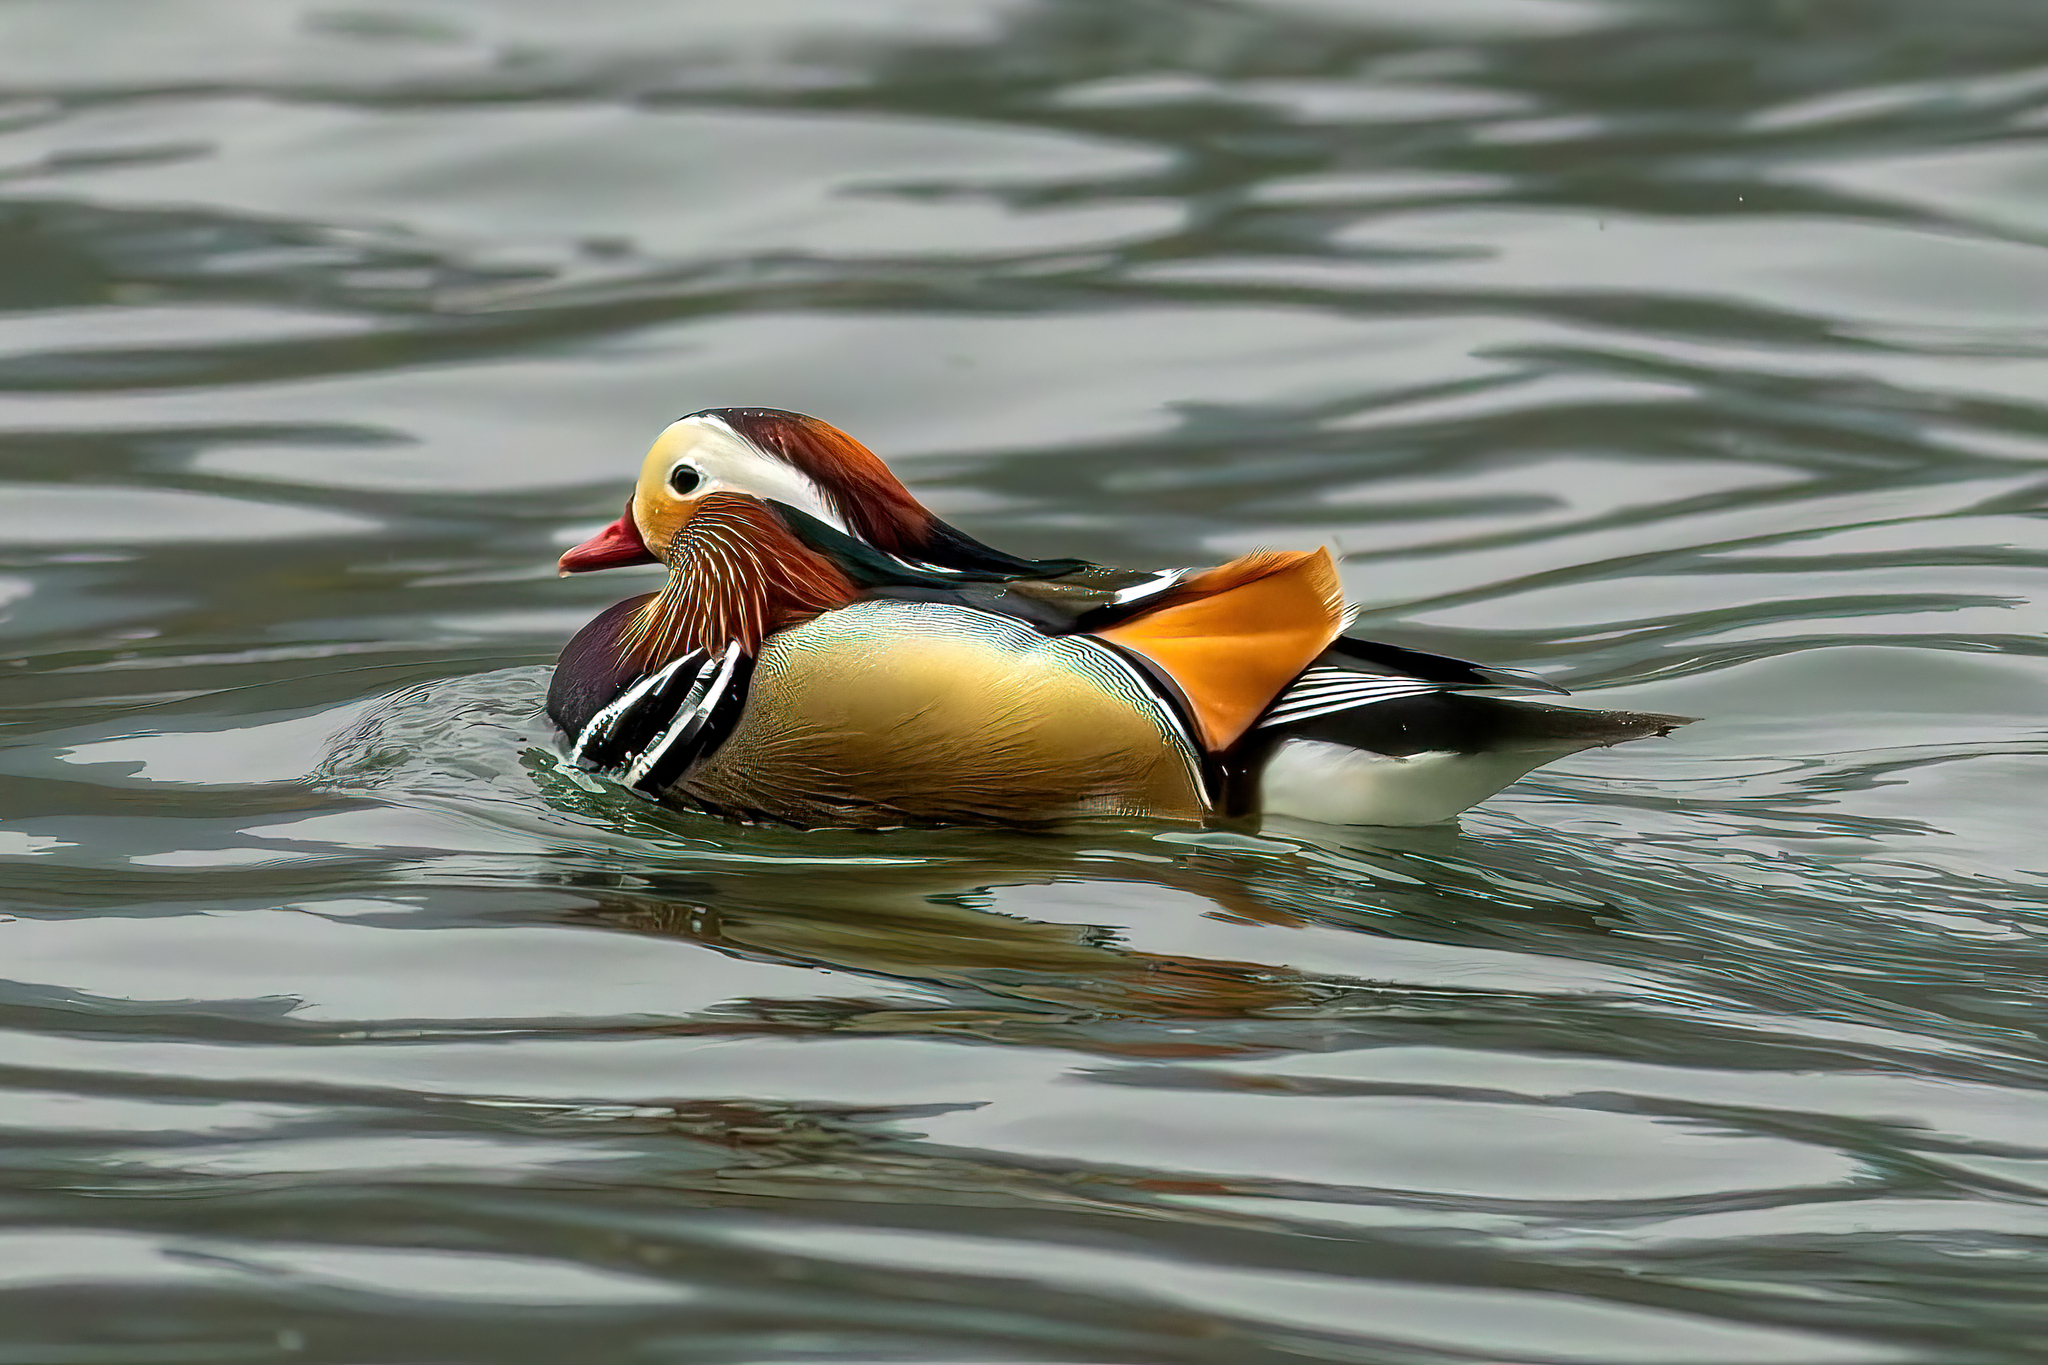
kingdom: Animalia
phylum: Chordata
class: Aves
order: Anseriformes
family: Anatidae
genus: Aix
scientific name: Aix galericulata
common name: Mandarin duck
